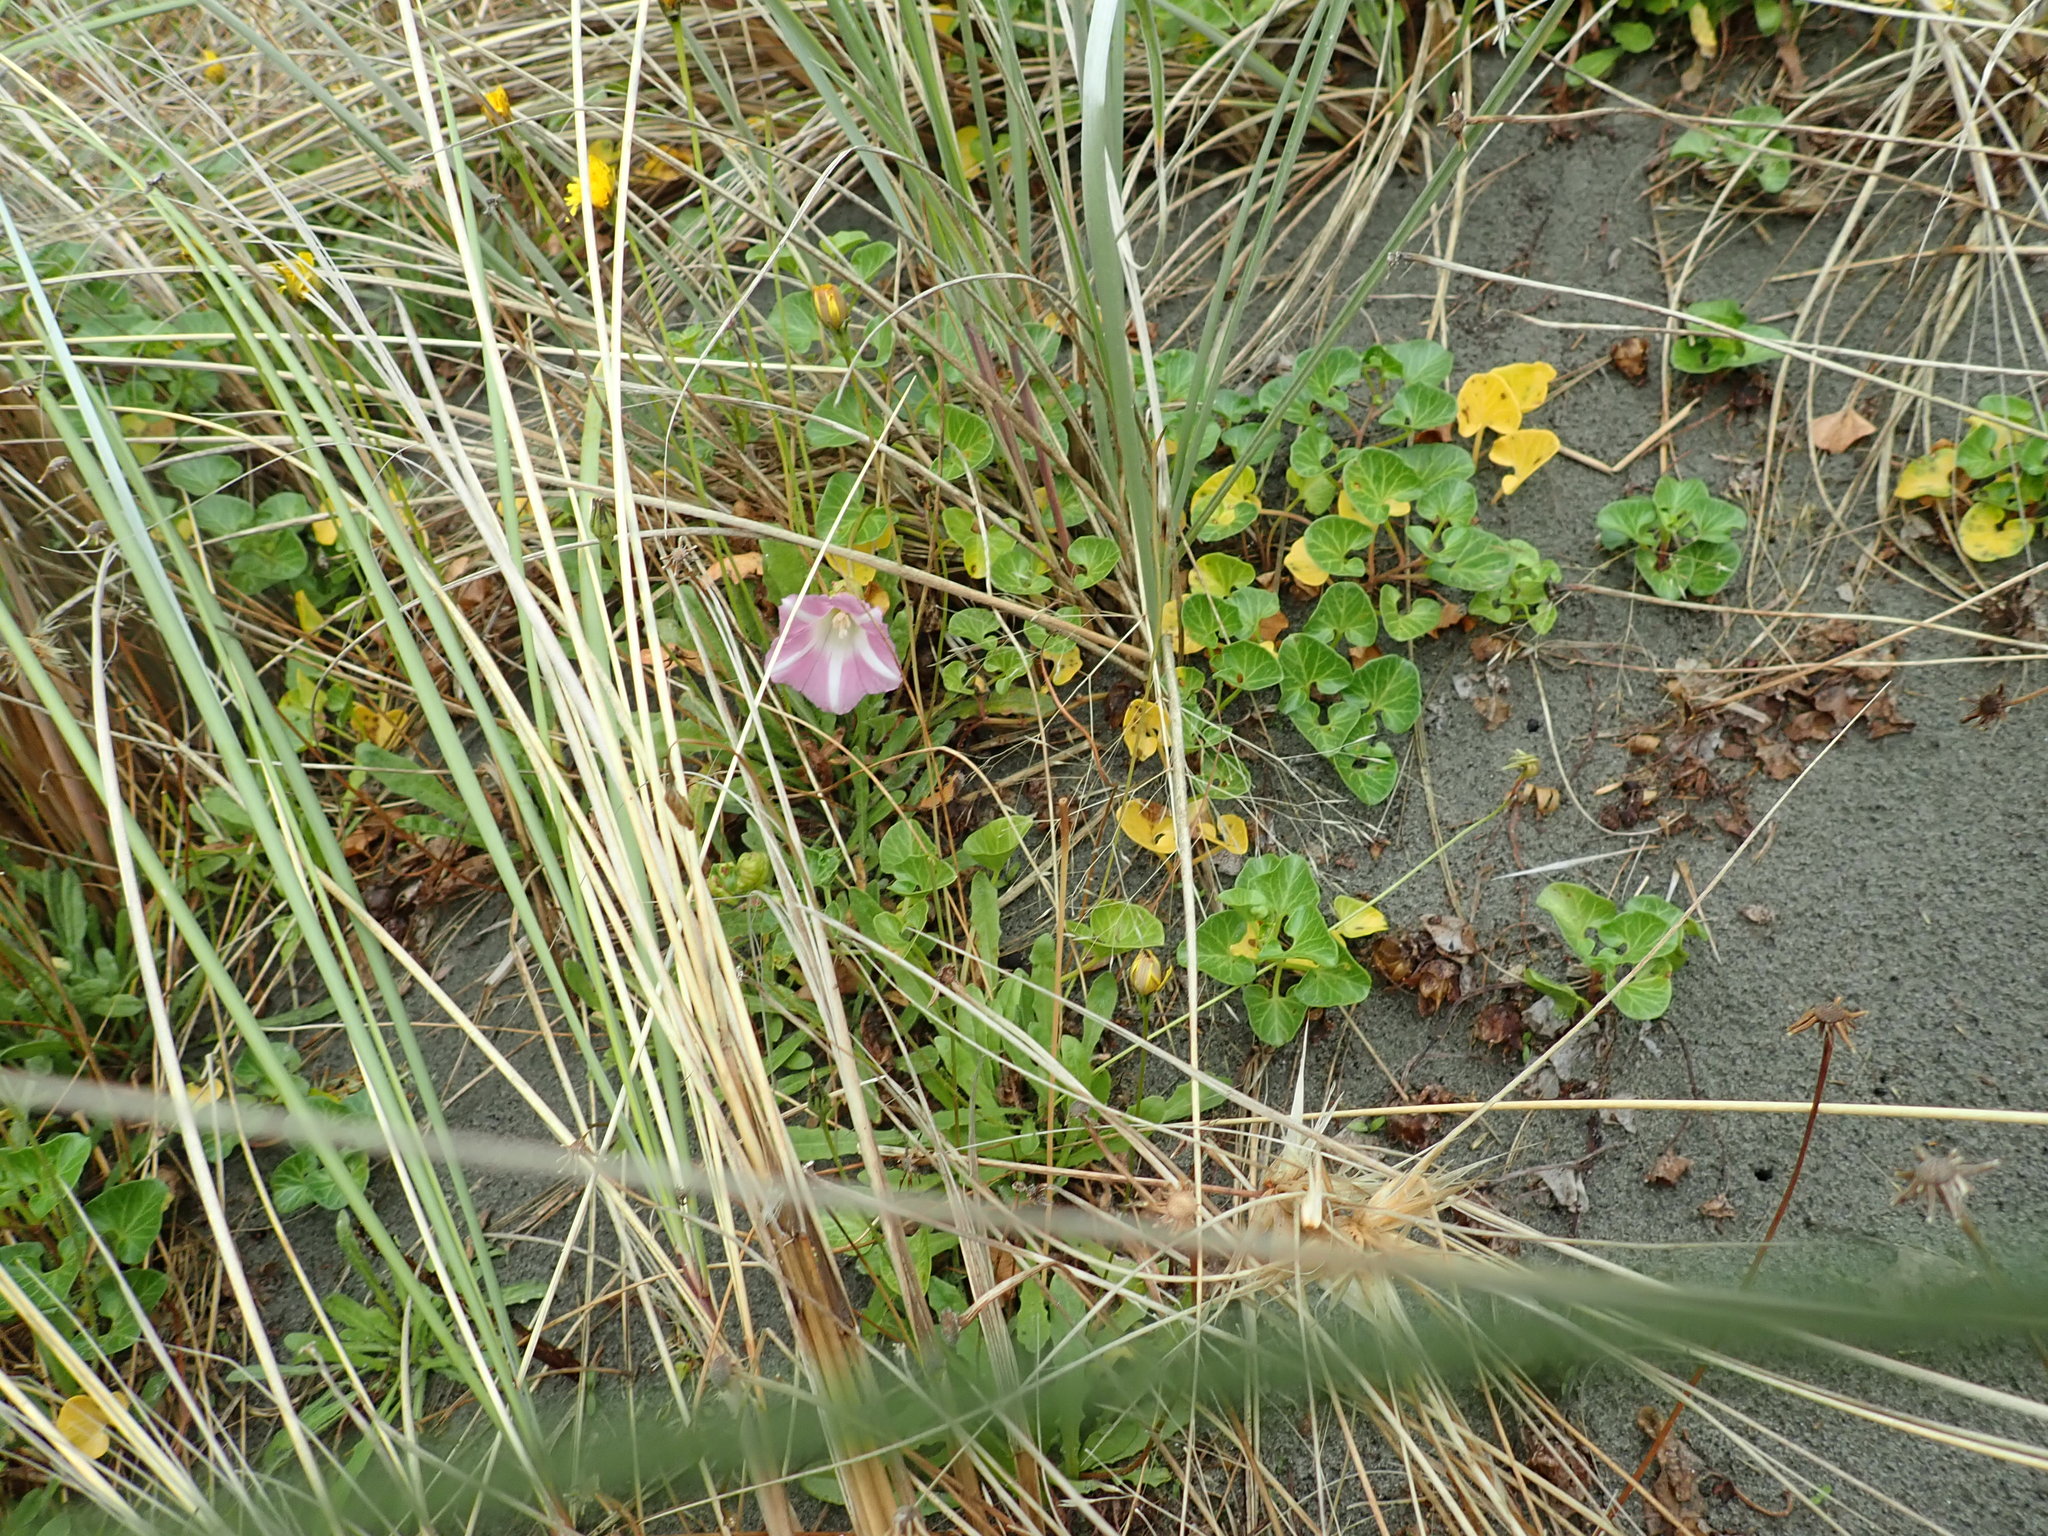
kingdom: Plantae
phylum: Tracheophyta
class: Magnoliopsida
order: Solanales
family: Convolvulaceae
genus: Calystegia
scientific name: Calystegia soldanella
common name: Sea bindweed
